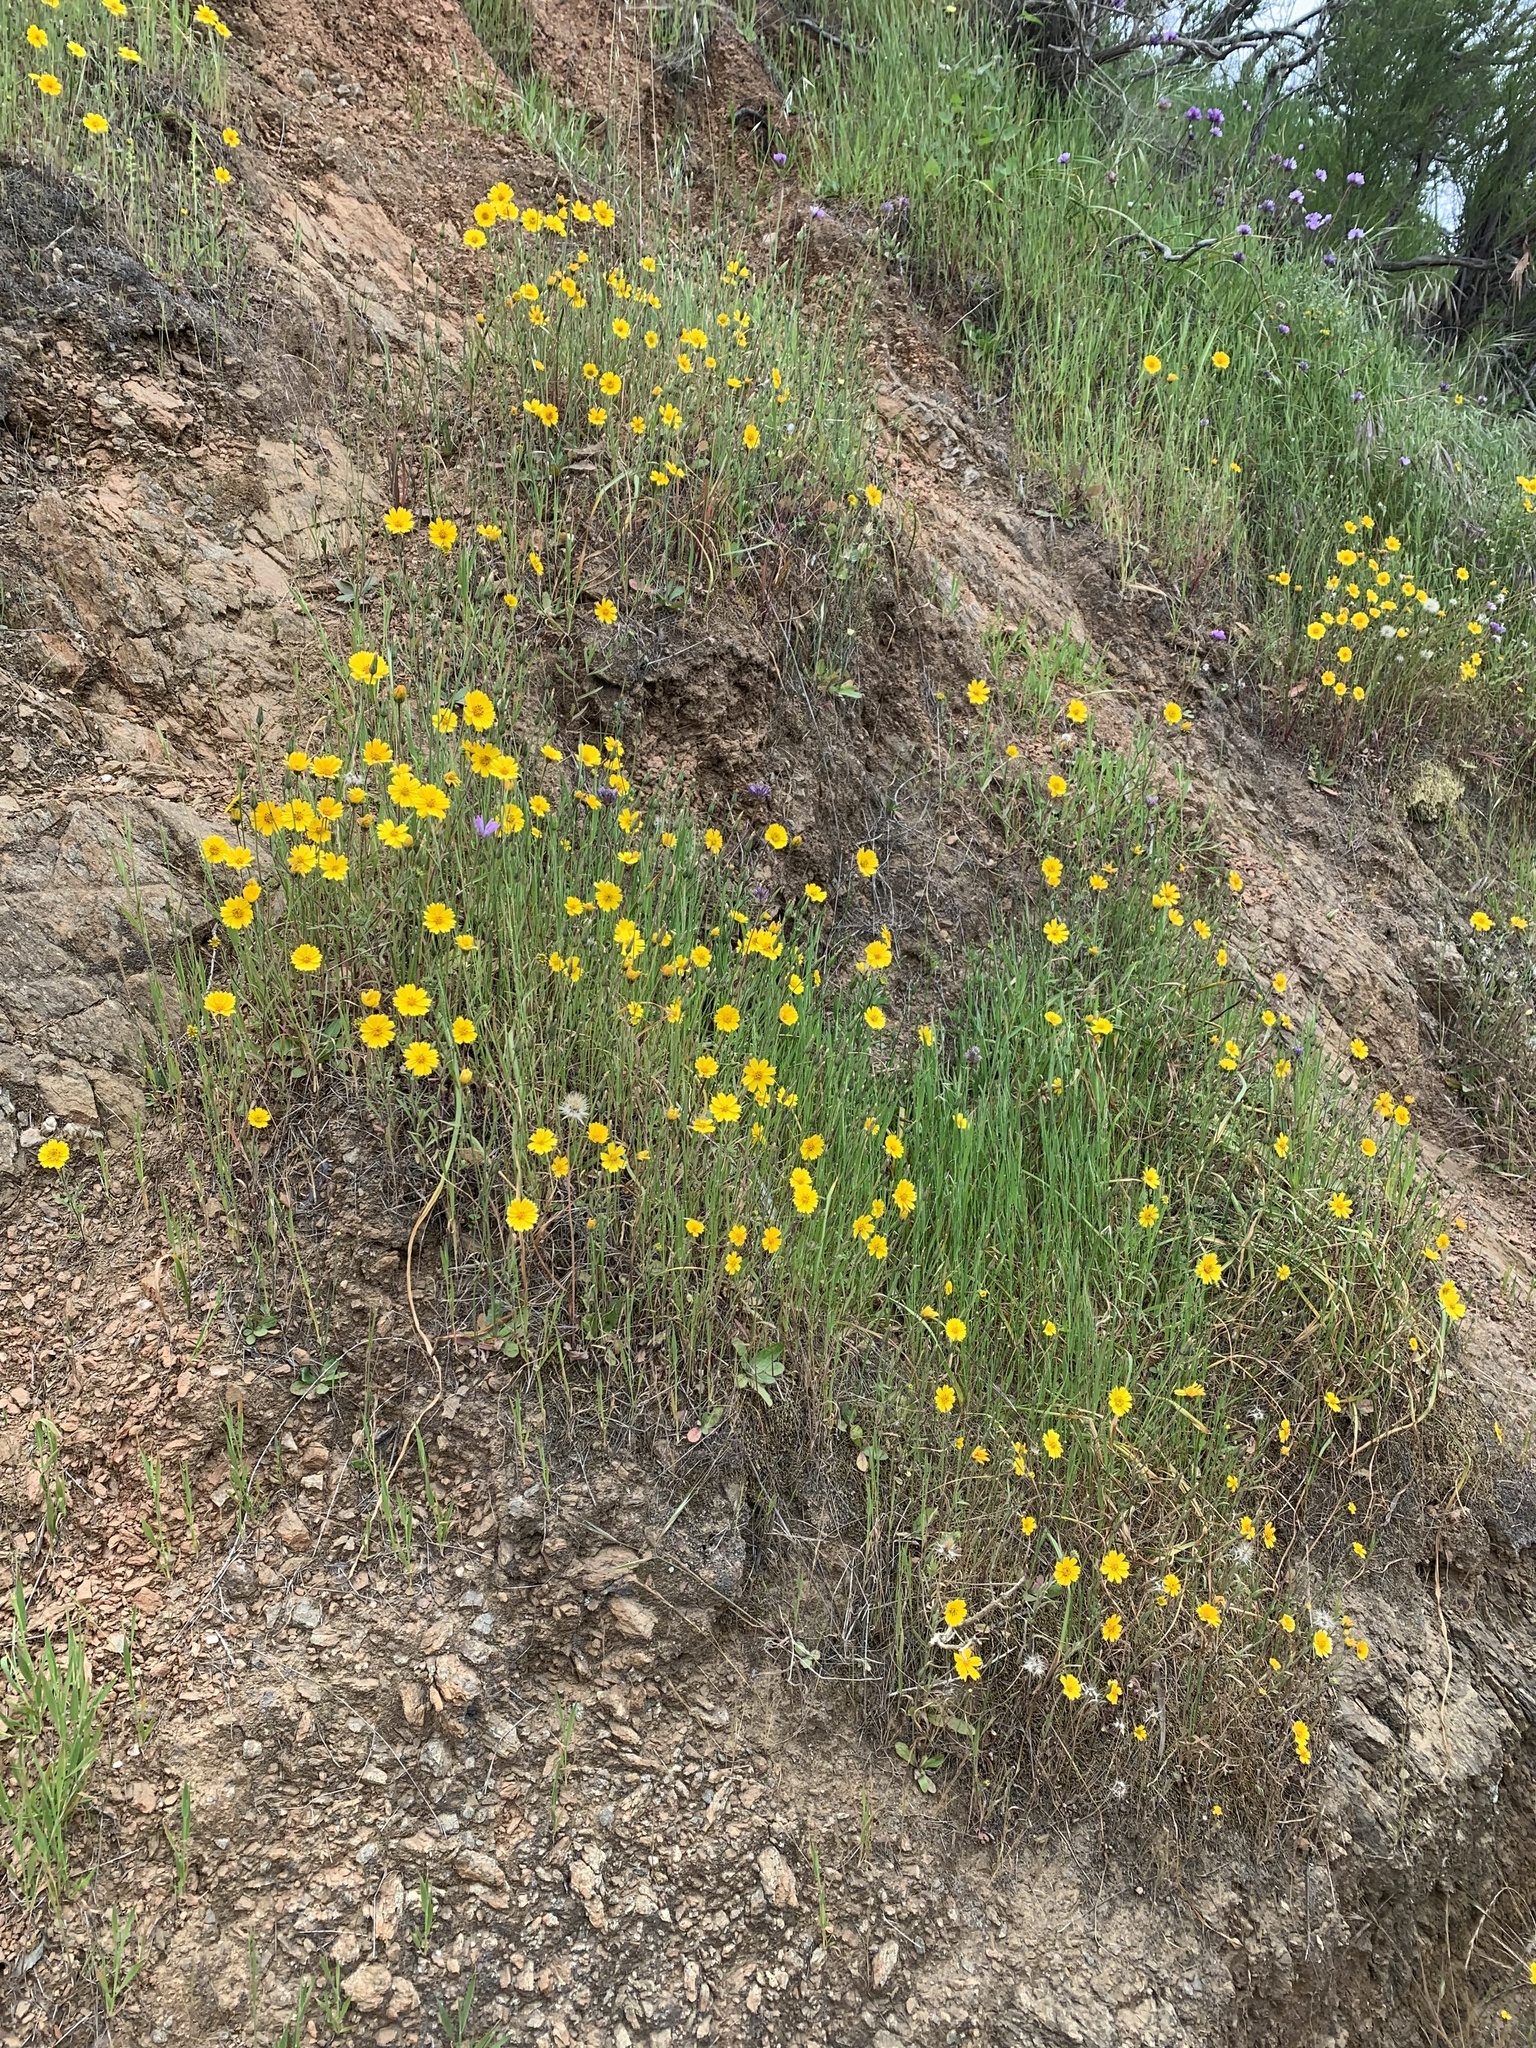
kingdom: Plantae
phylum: Tracheophyta
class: Magnoliopsida
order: Asterales
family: Asteraceae
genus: Layia
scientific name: Layia platyglossa
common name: Tidy-tips
